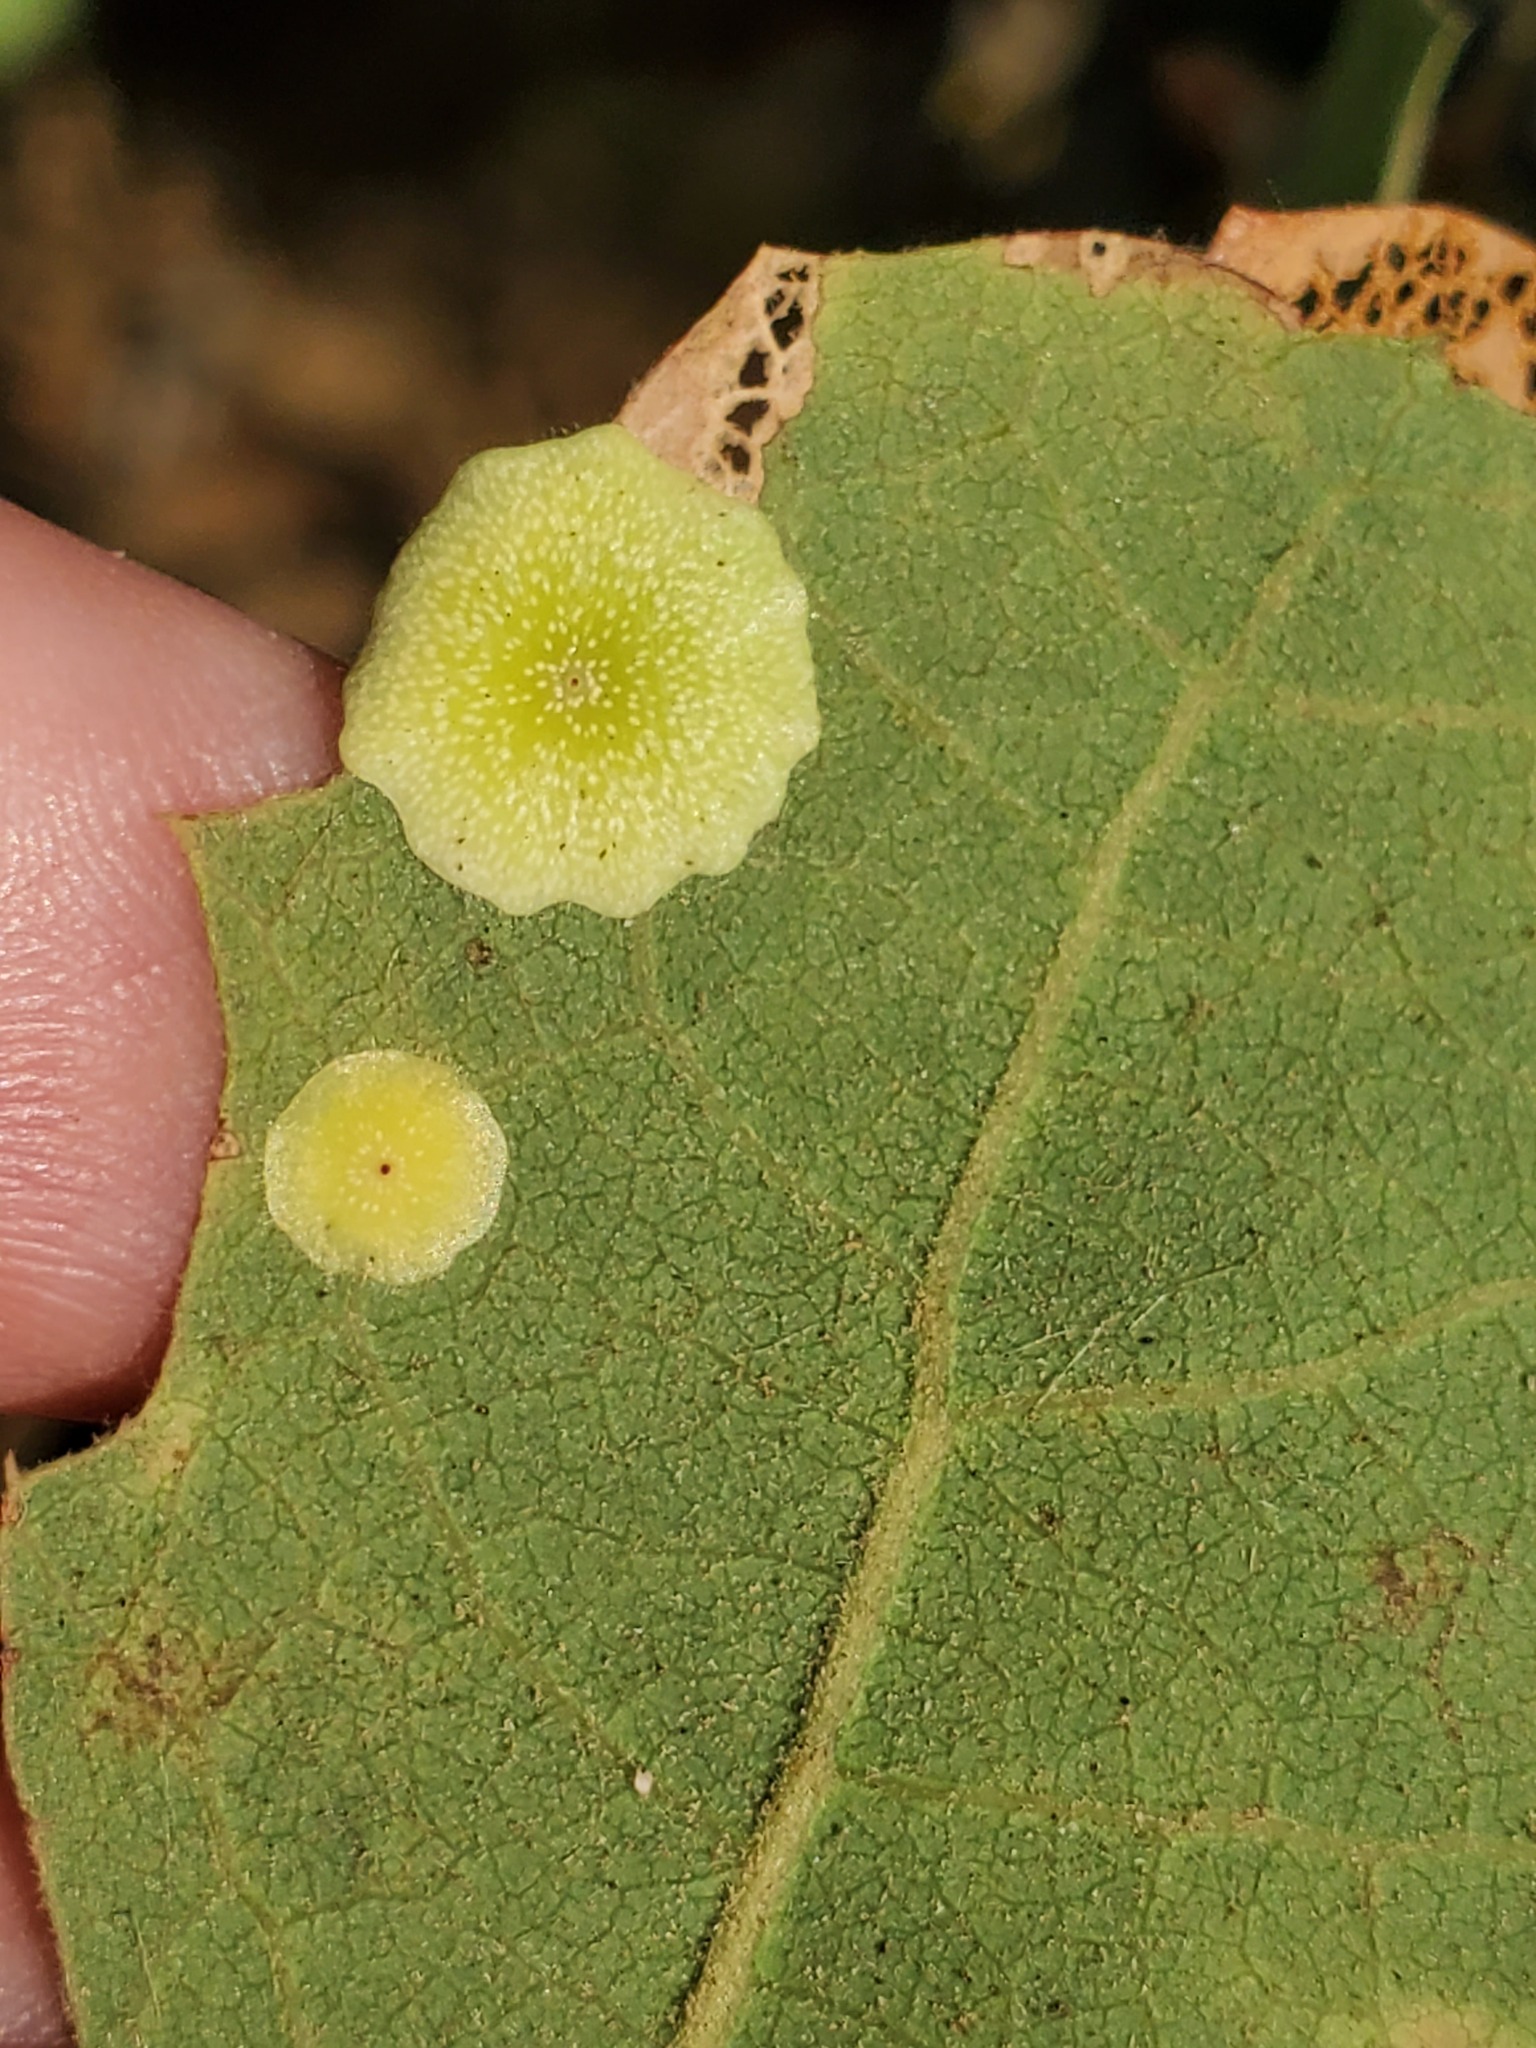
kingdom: Animalia
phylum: Arthropoda
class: Insecta
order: Hymenoptera
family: Cynipidae
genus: Andricus
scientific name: Andricus
